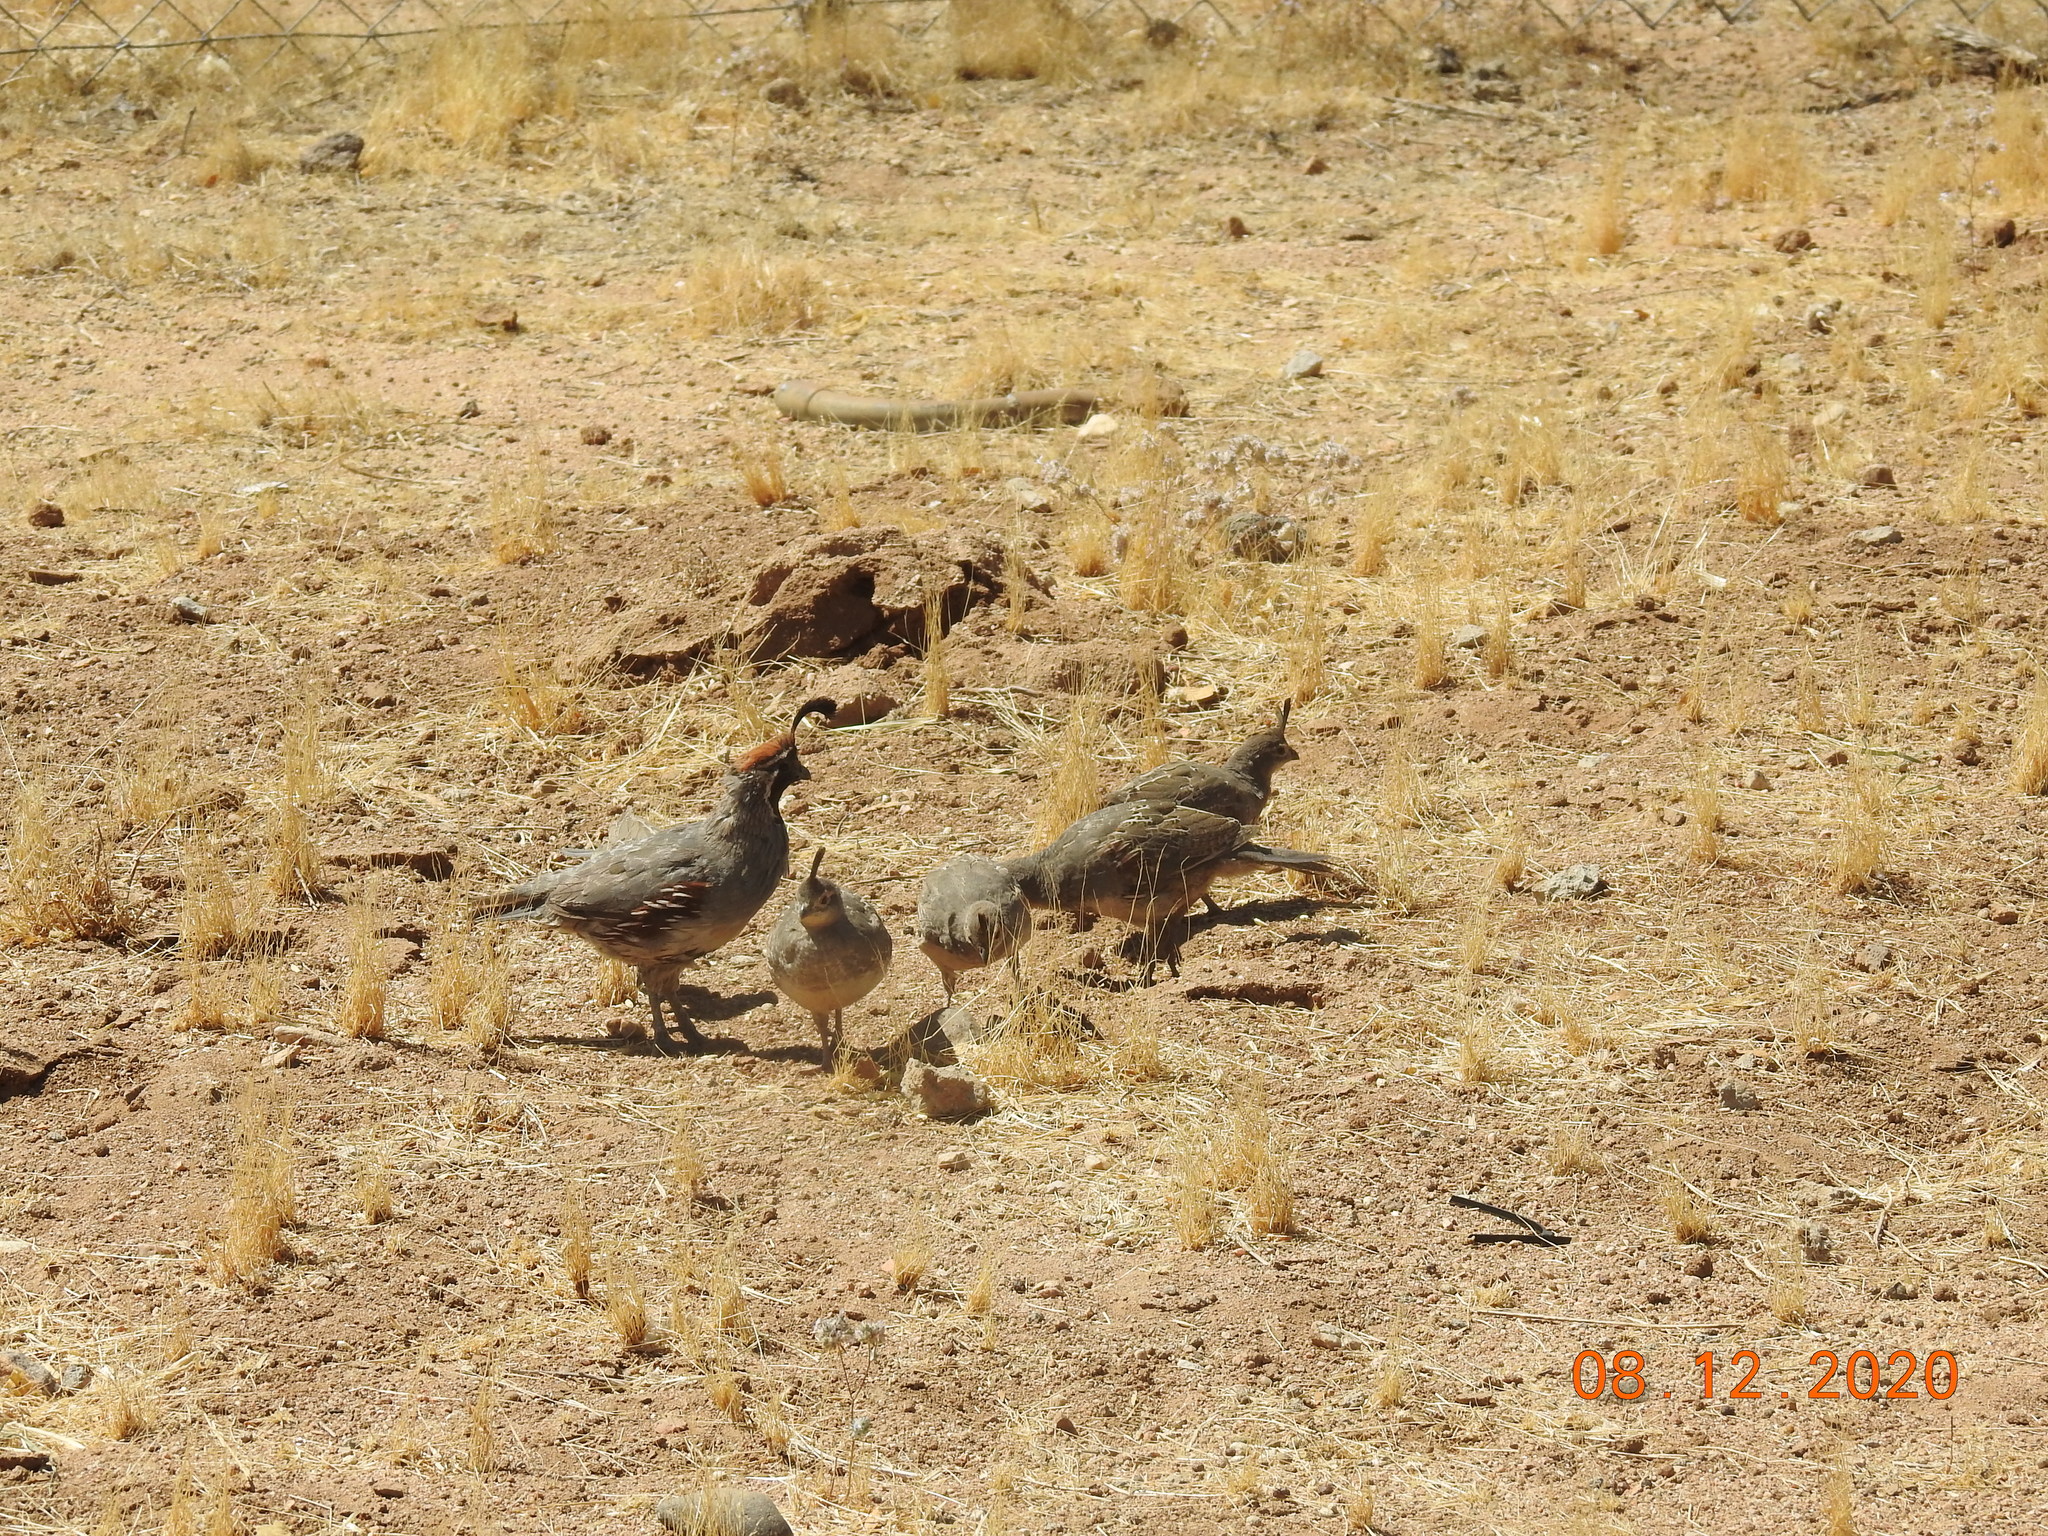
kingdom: Animalia
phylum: Chordata
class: Aves
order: Galliformes
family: Odontophoridae
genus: Callipepla
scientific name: Callipepla gambelii
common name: Gambel's quail
